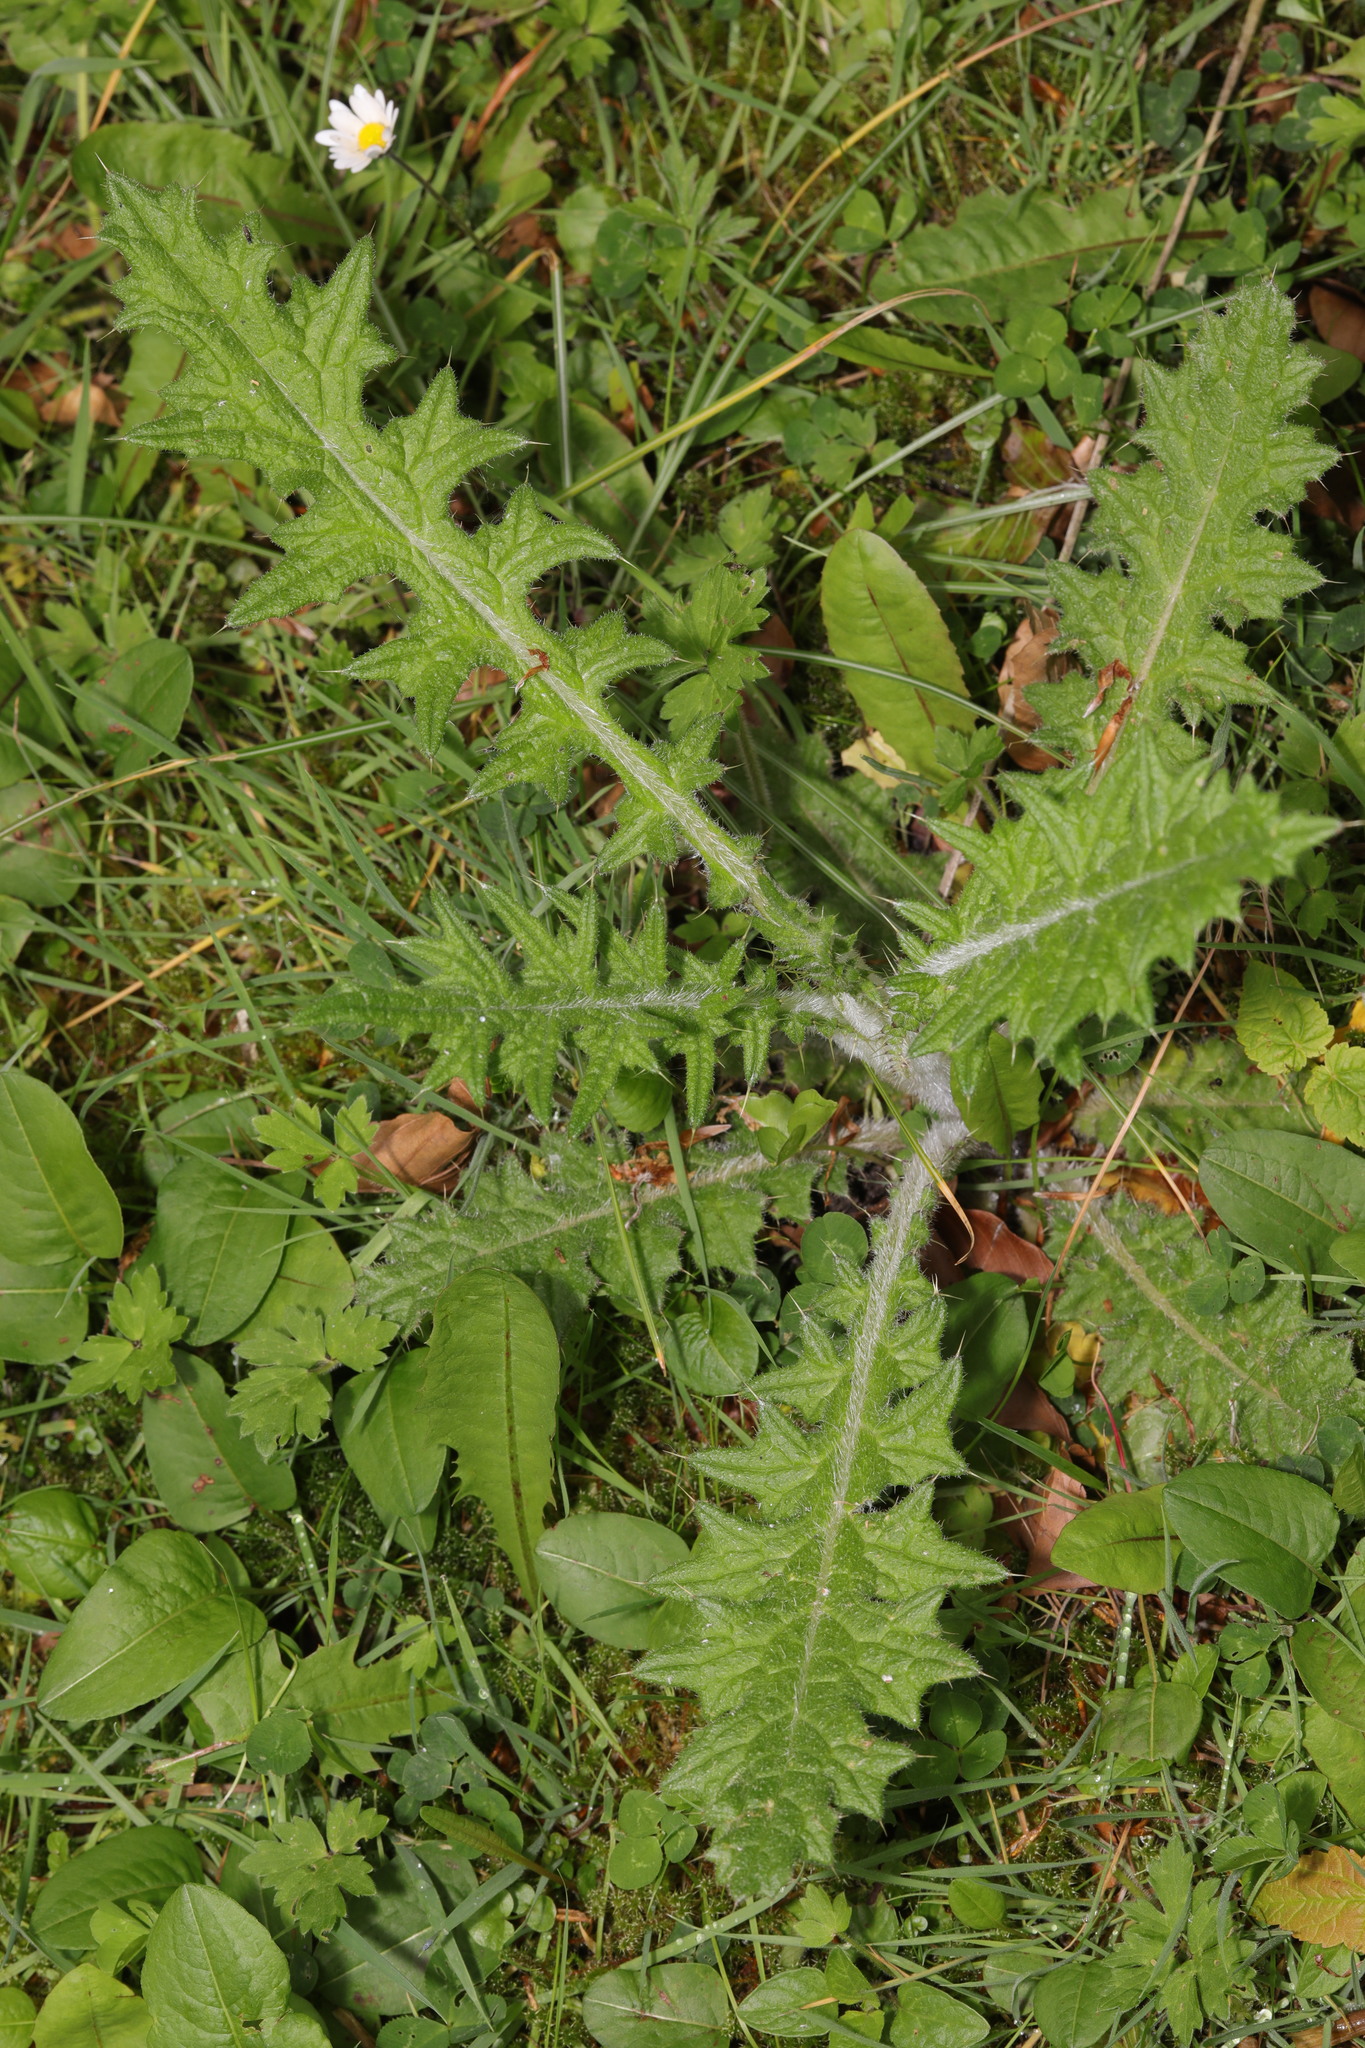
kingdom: Plantae
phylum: Tracheophyta
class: Magnoliopsida
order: Asterales
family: Asteraceae
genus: Cirsium
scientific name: Cirsium vulgare
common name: Bull thistle
